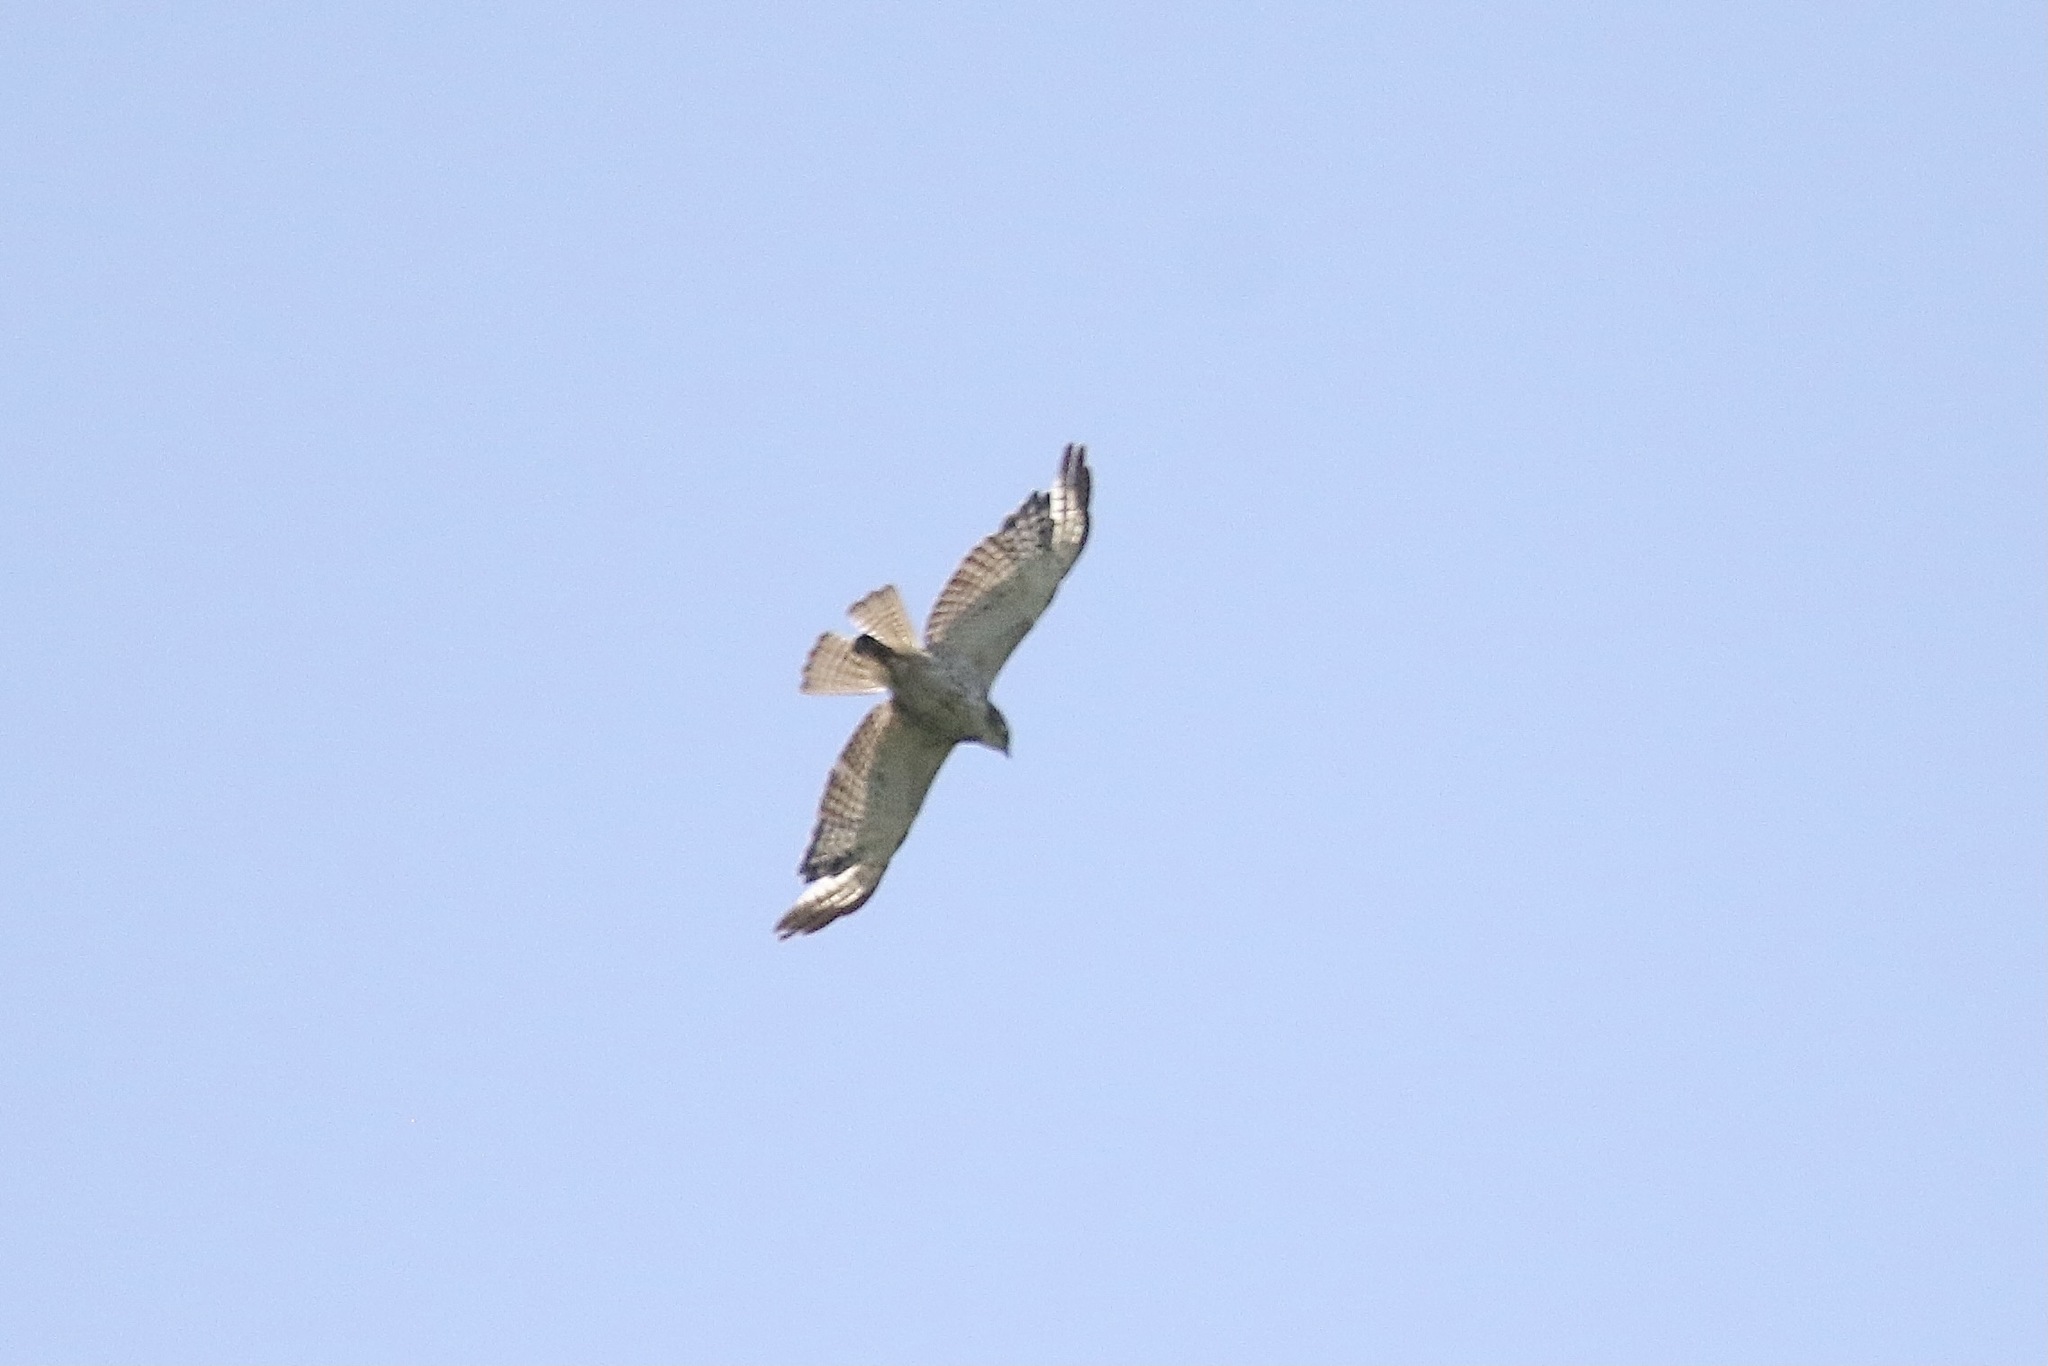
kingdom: Animalia
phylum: Chordata
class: Aves
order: Accipitriformes
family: Accipitridae
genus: Buteo
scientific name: Buteo platypterus
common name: Broad-winged hawk
